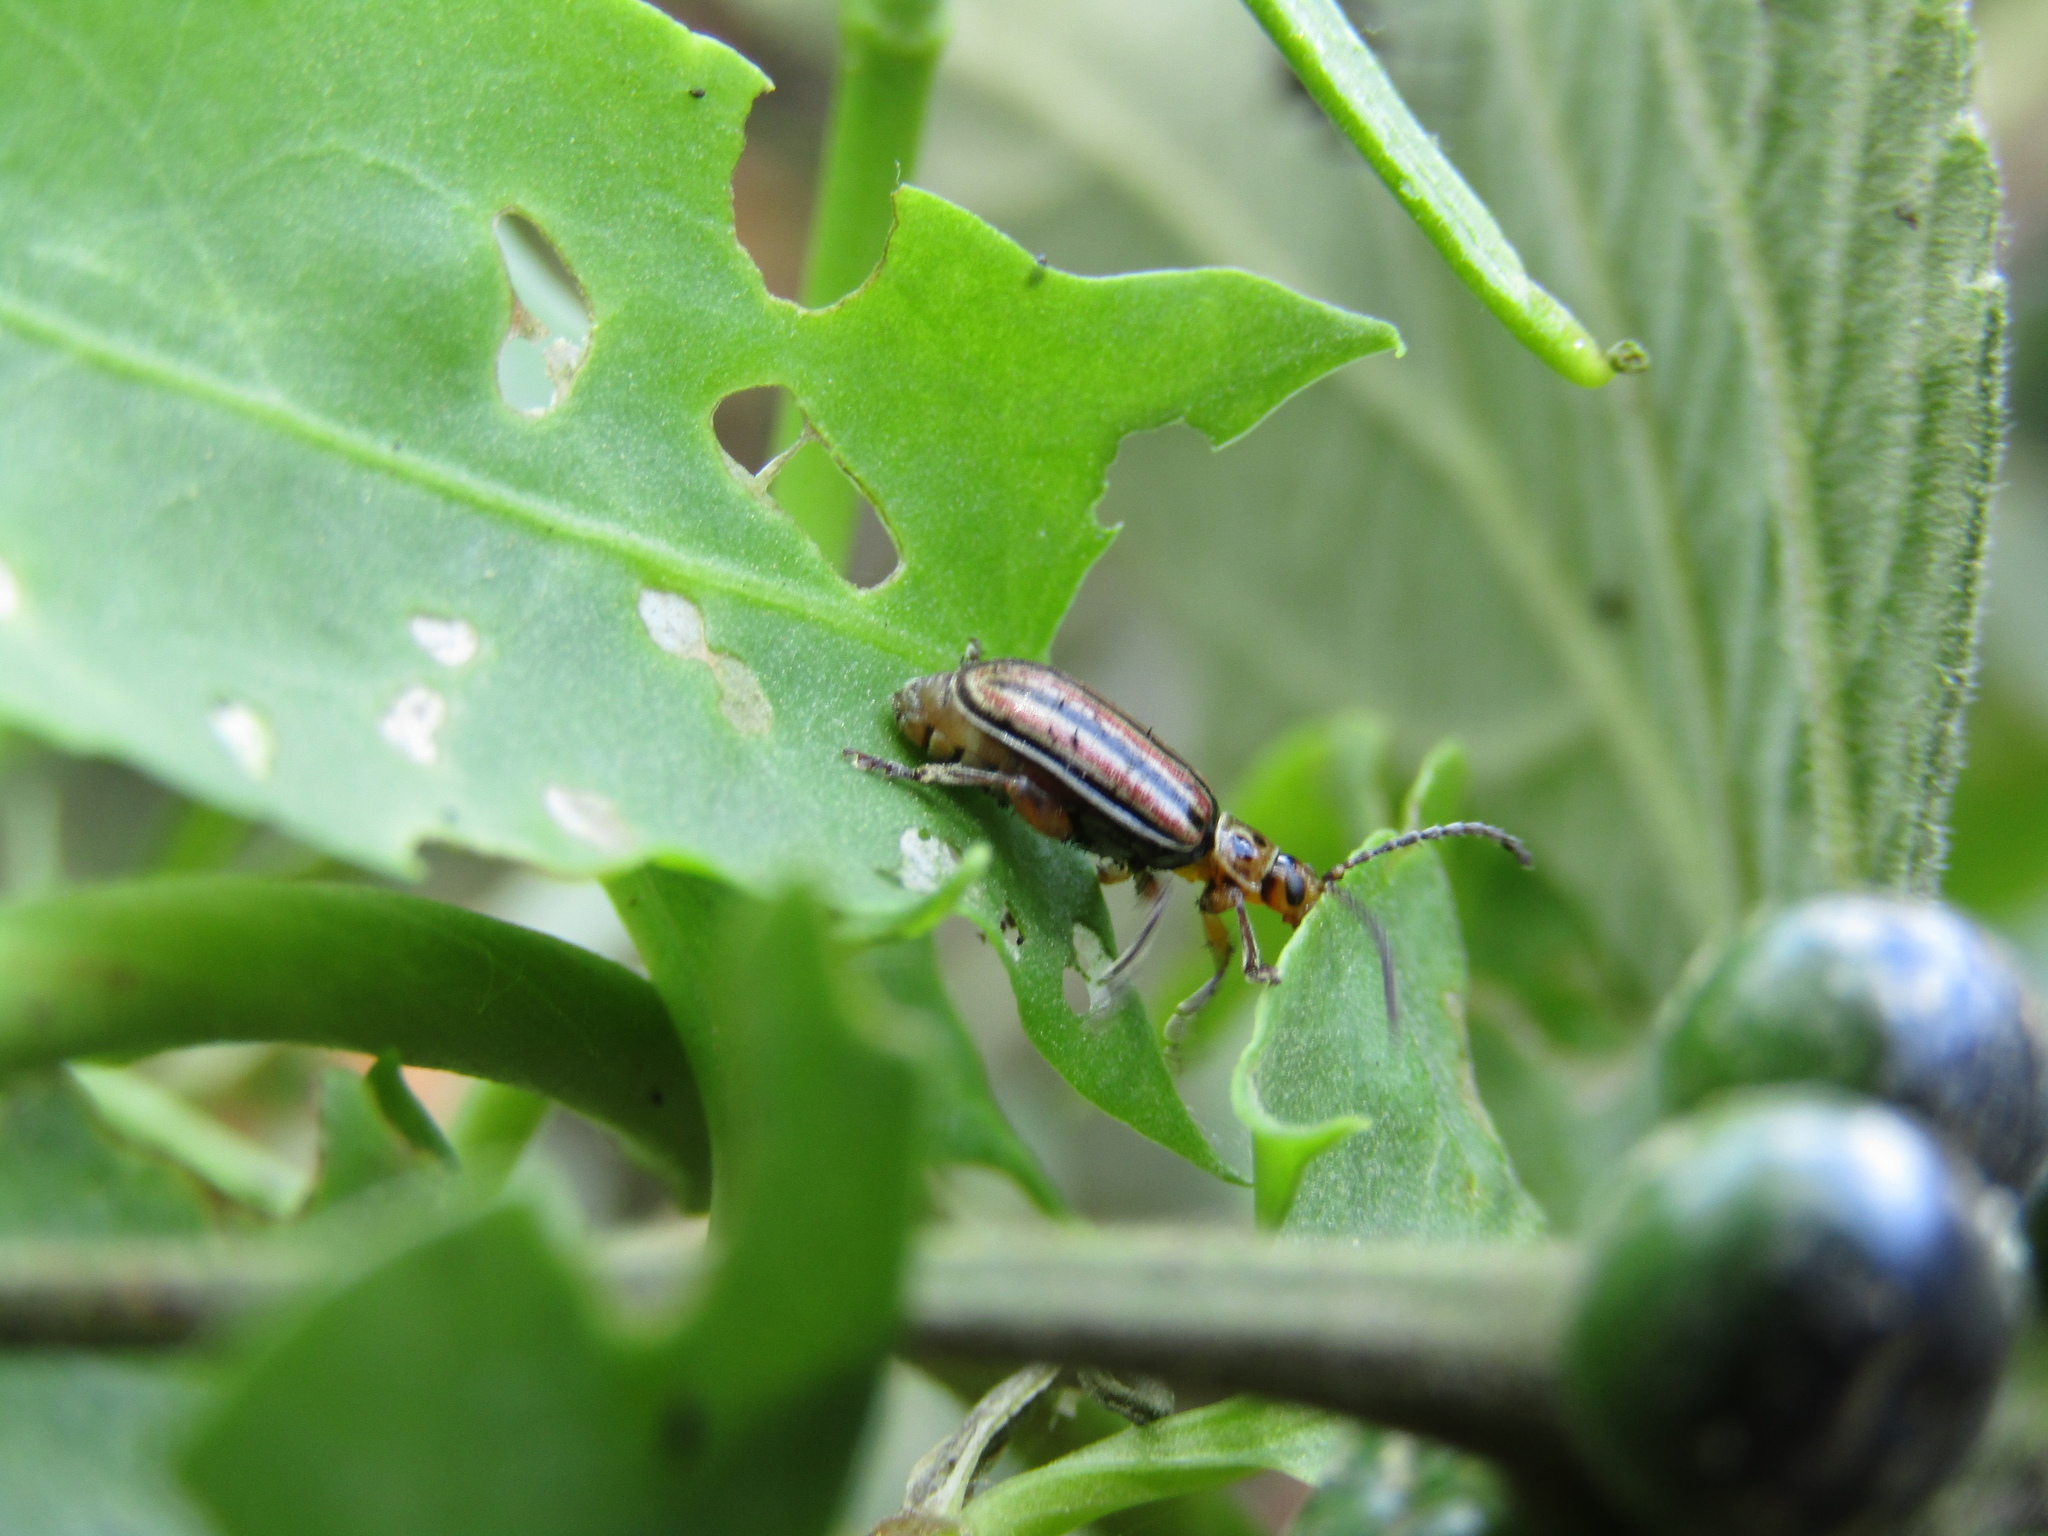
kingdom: Animalia
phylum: Arthropoda
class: Insecta
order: Coleoptera
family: Chrysomelidae
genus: Disonycha
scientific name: Disonycha
